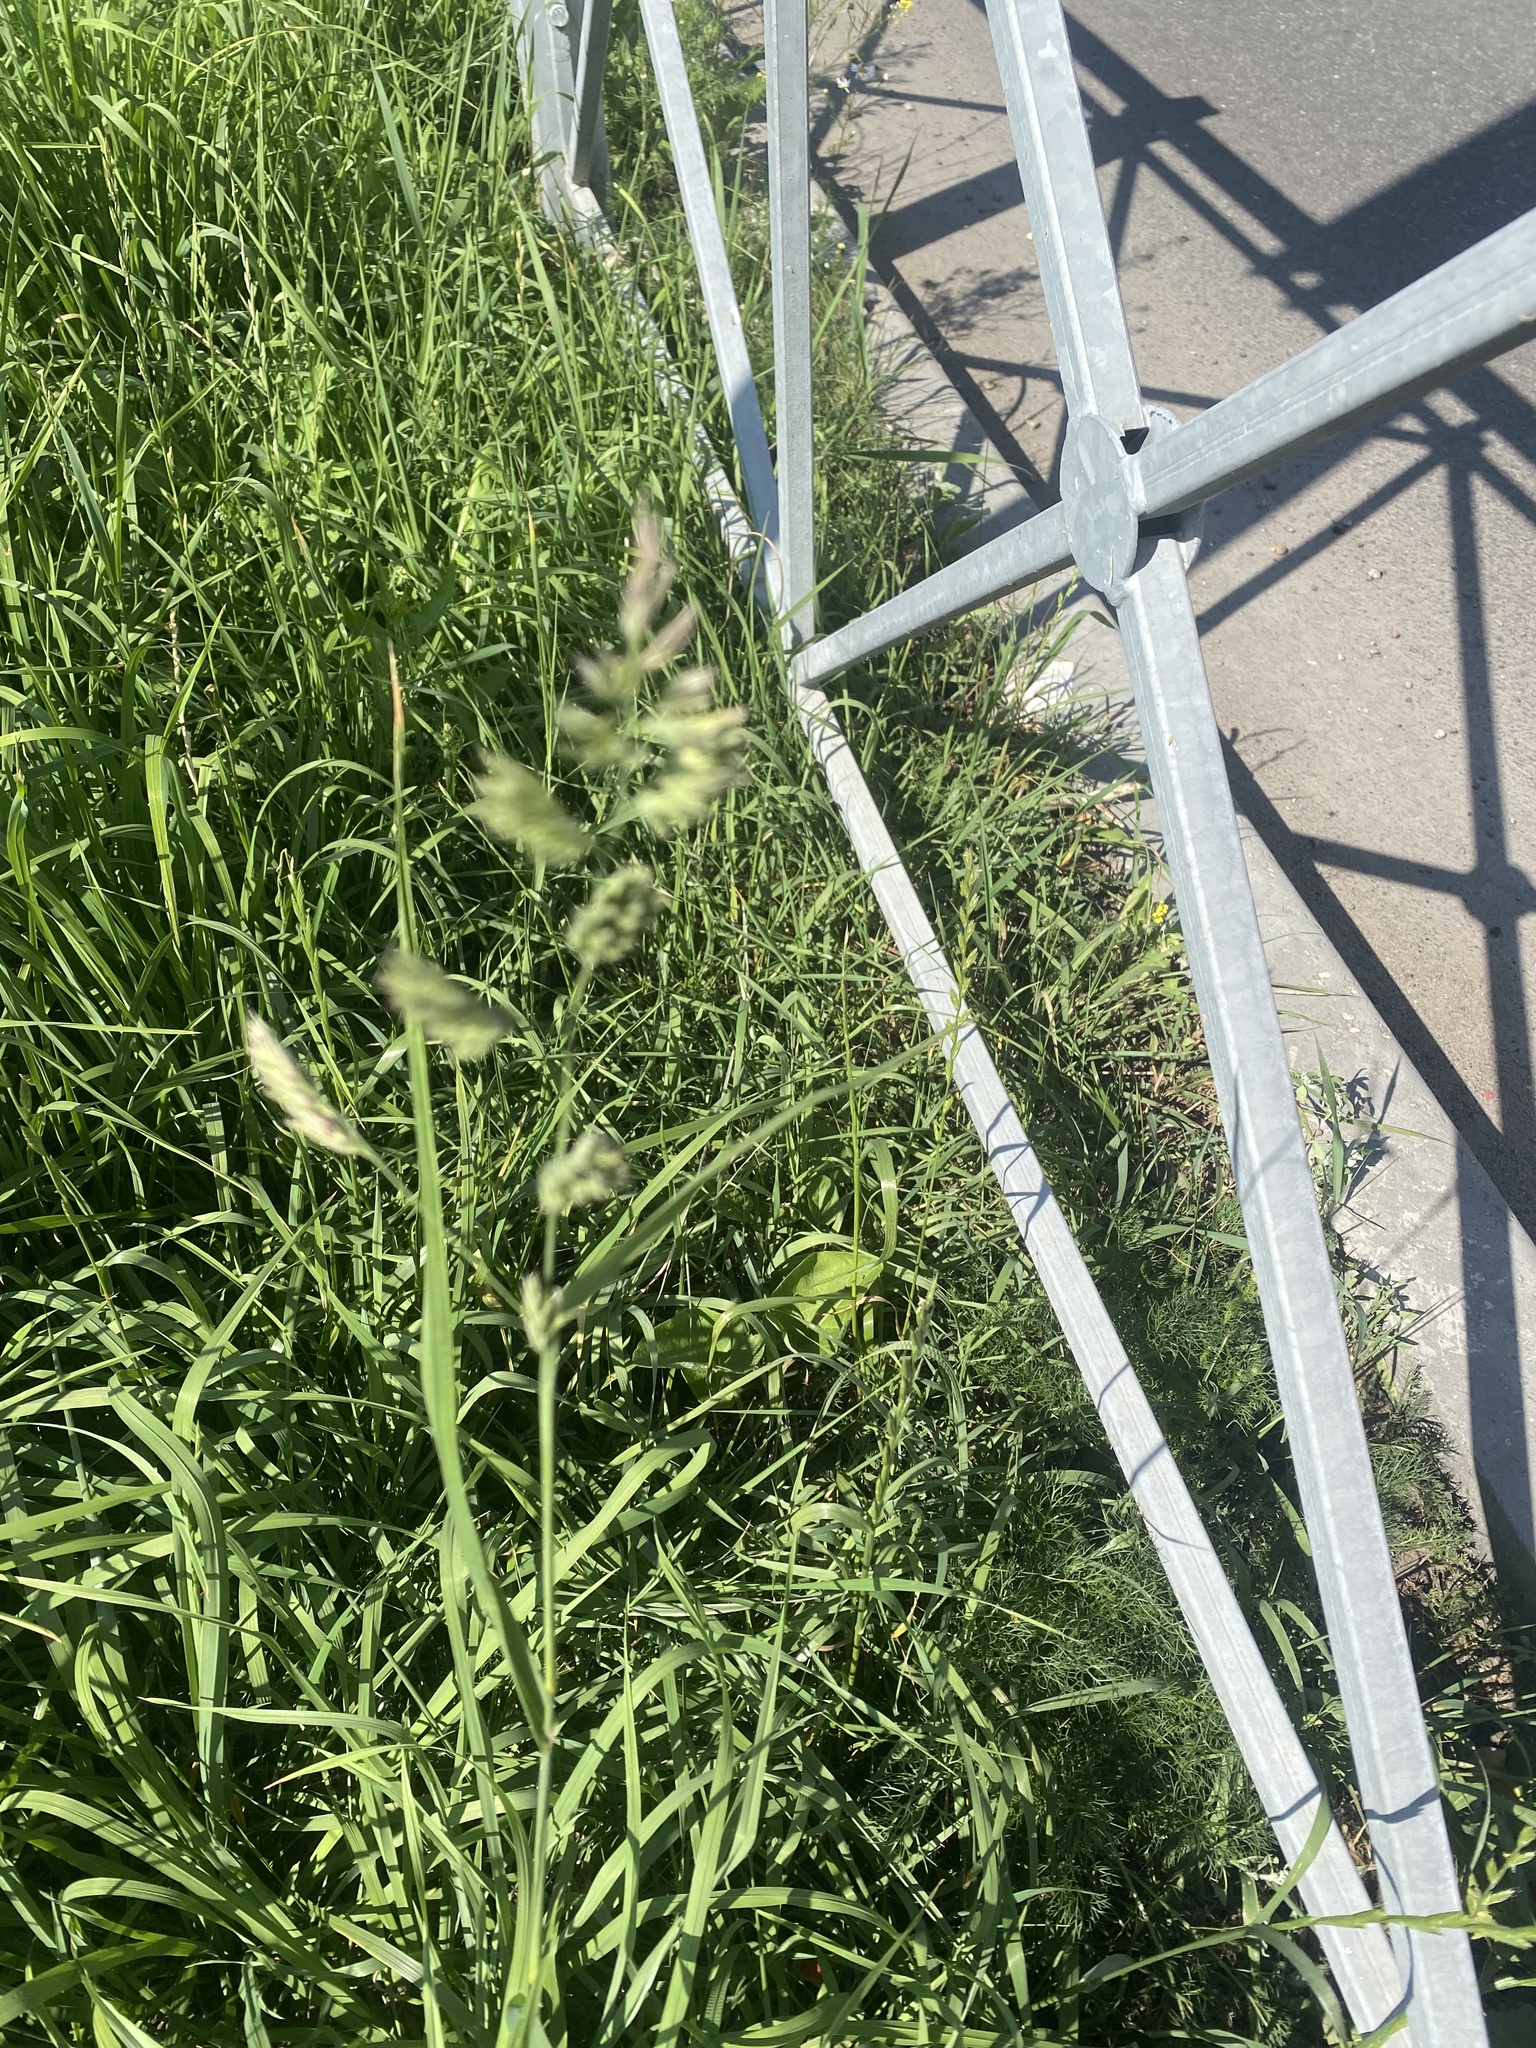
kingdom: Plantae
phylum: Tracheophyta
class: Liliopsida
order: Poales
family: Poaceae
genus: Dactylis
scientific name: Dactylis glomerata
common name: Orchardgrass
